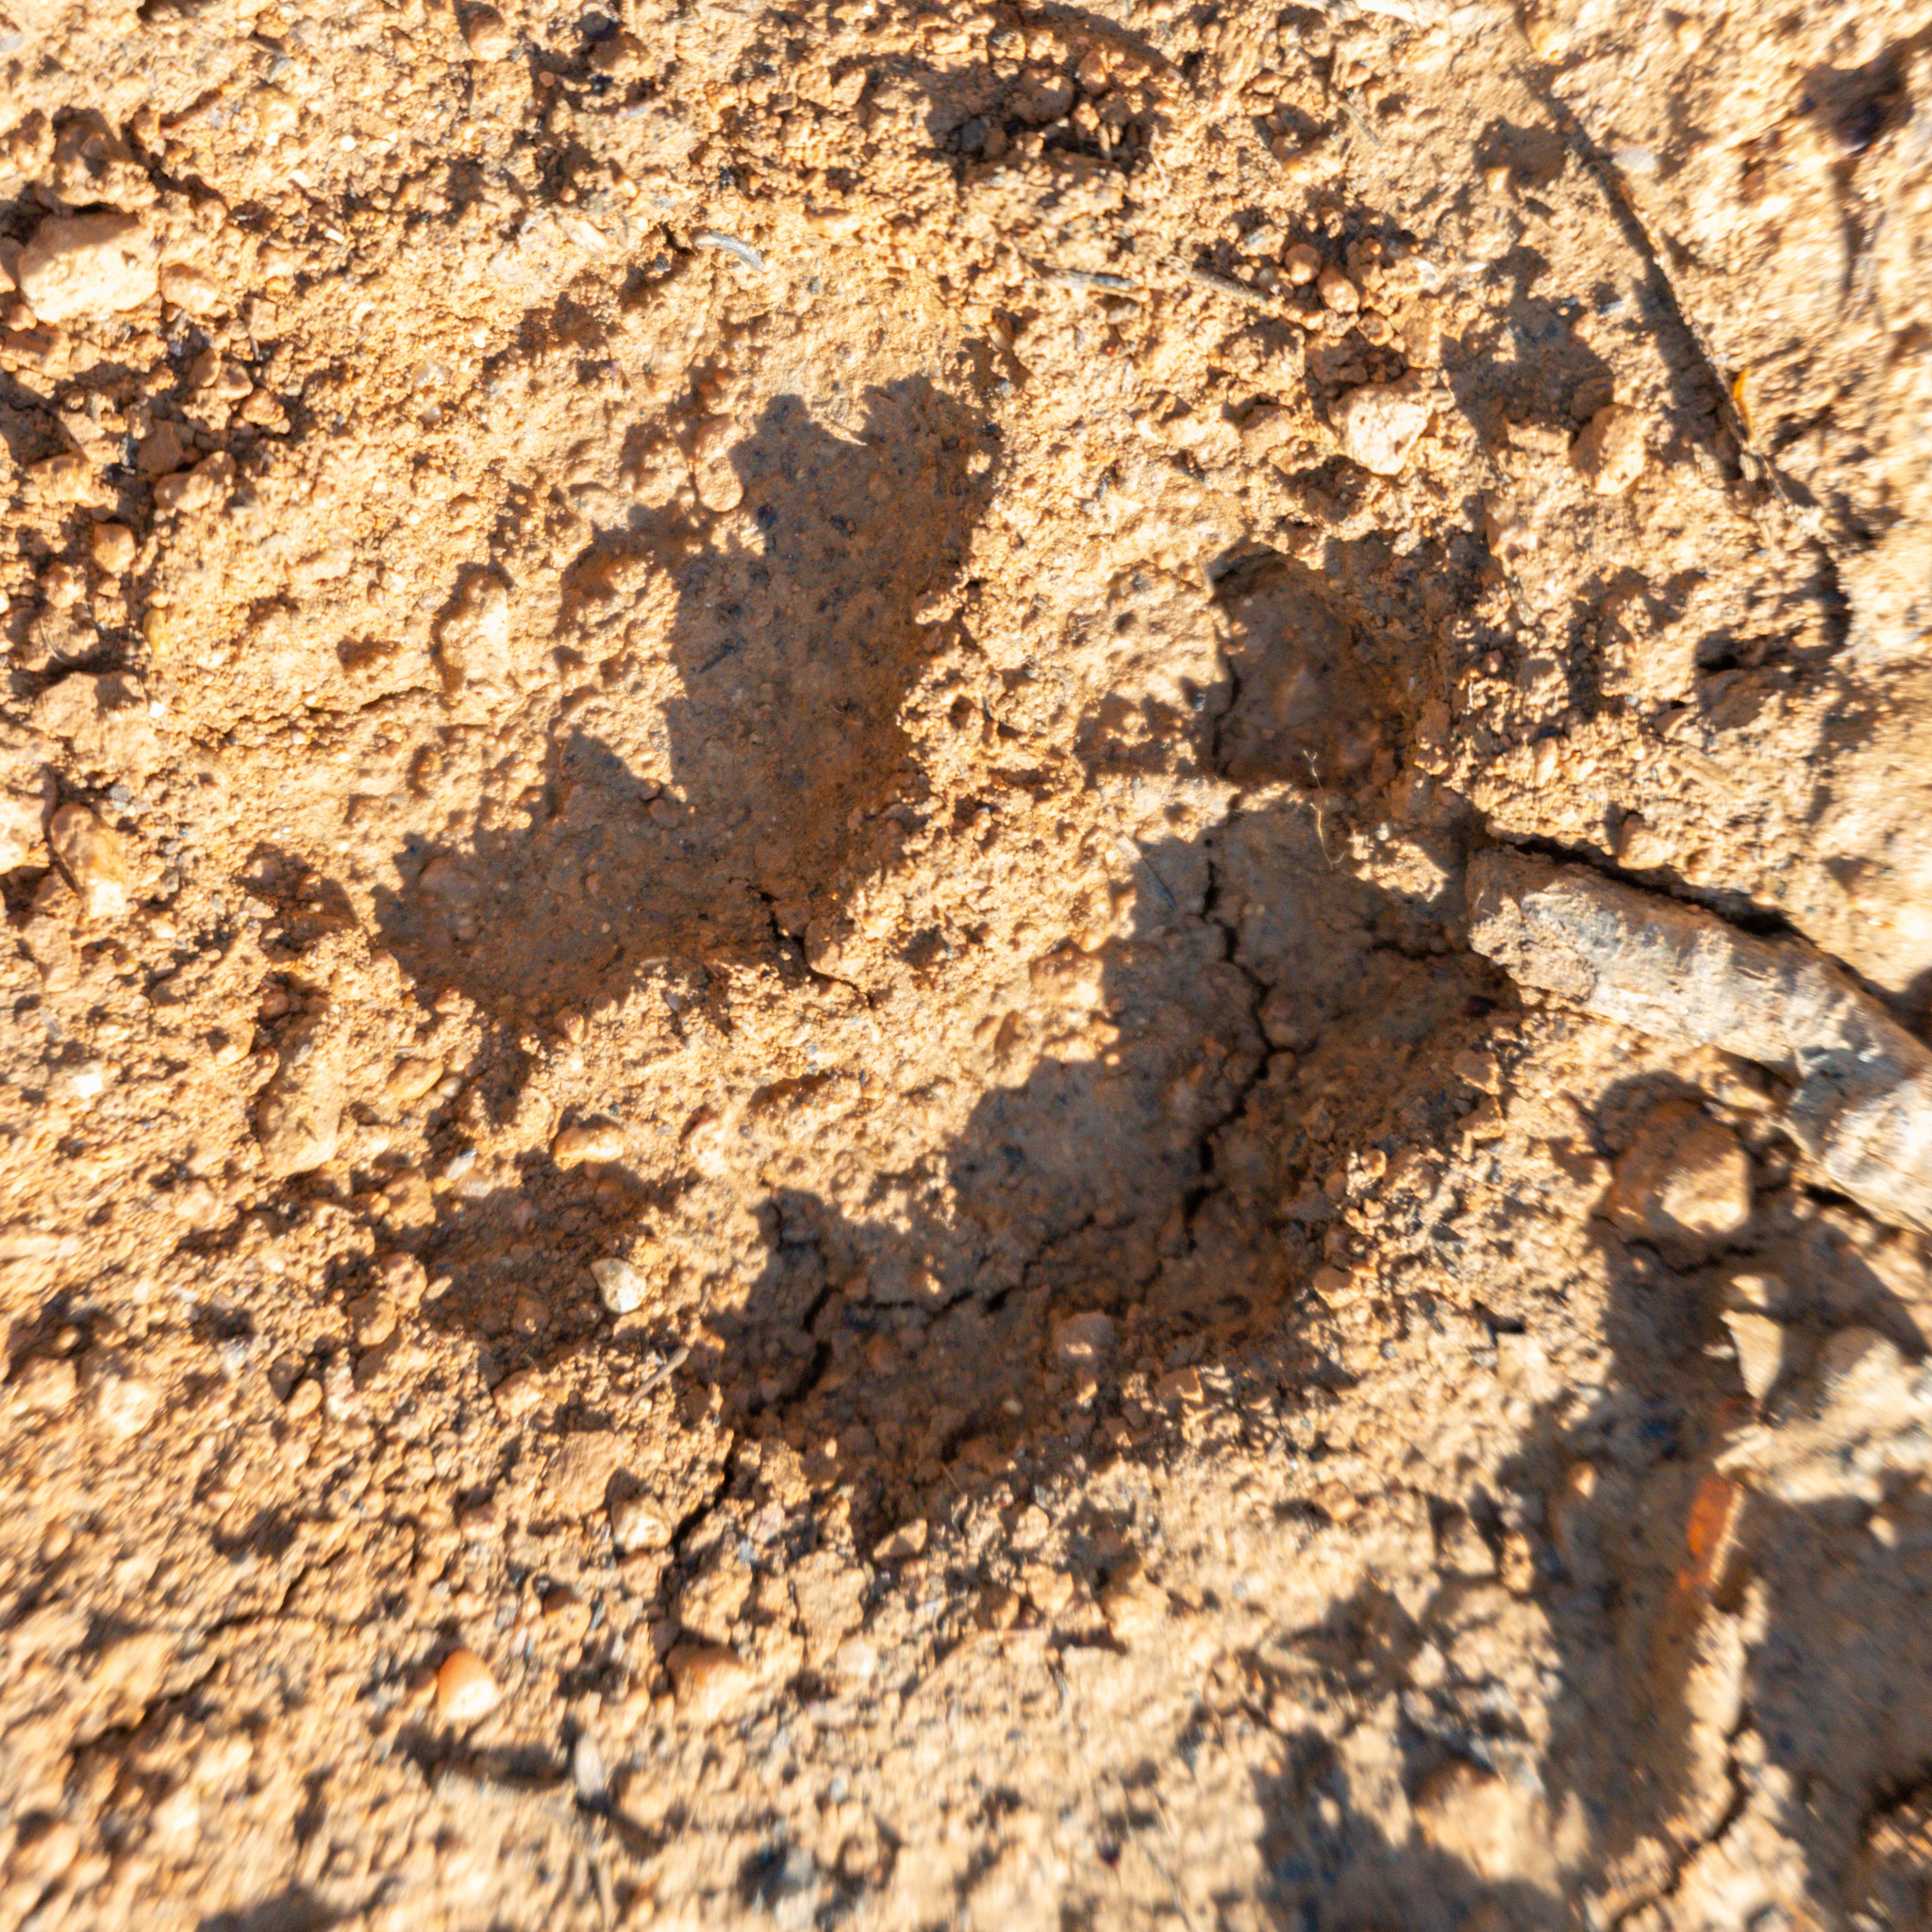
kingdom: Animalia
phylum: Chordata
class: Mammalia
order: Carnivora
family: Mustelidae
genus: Meles
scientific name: Meles meles
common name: Eurasian badger
